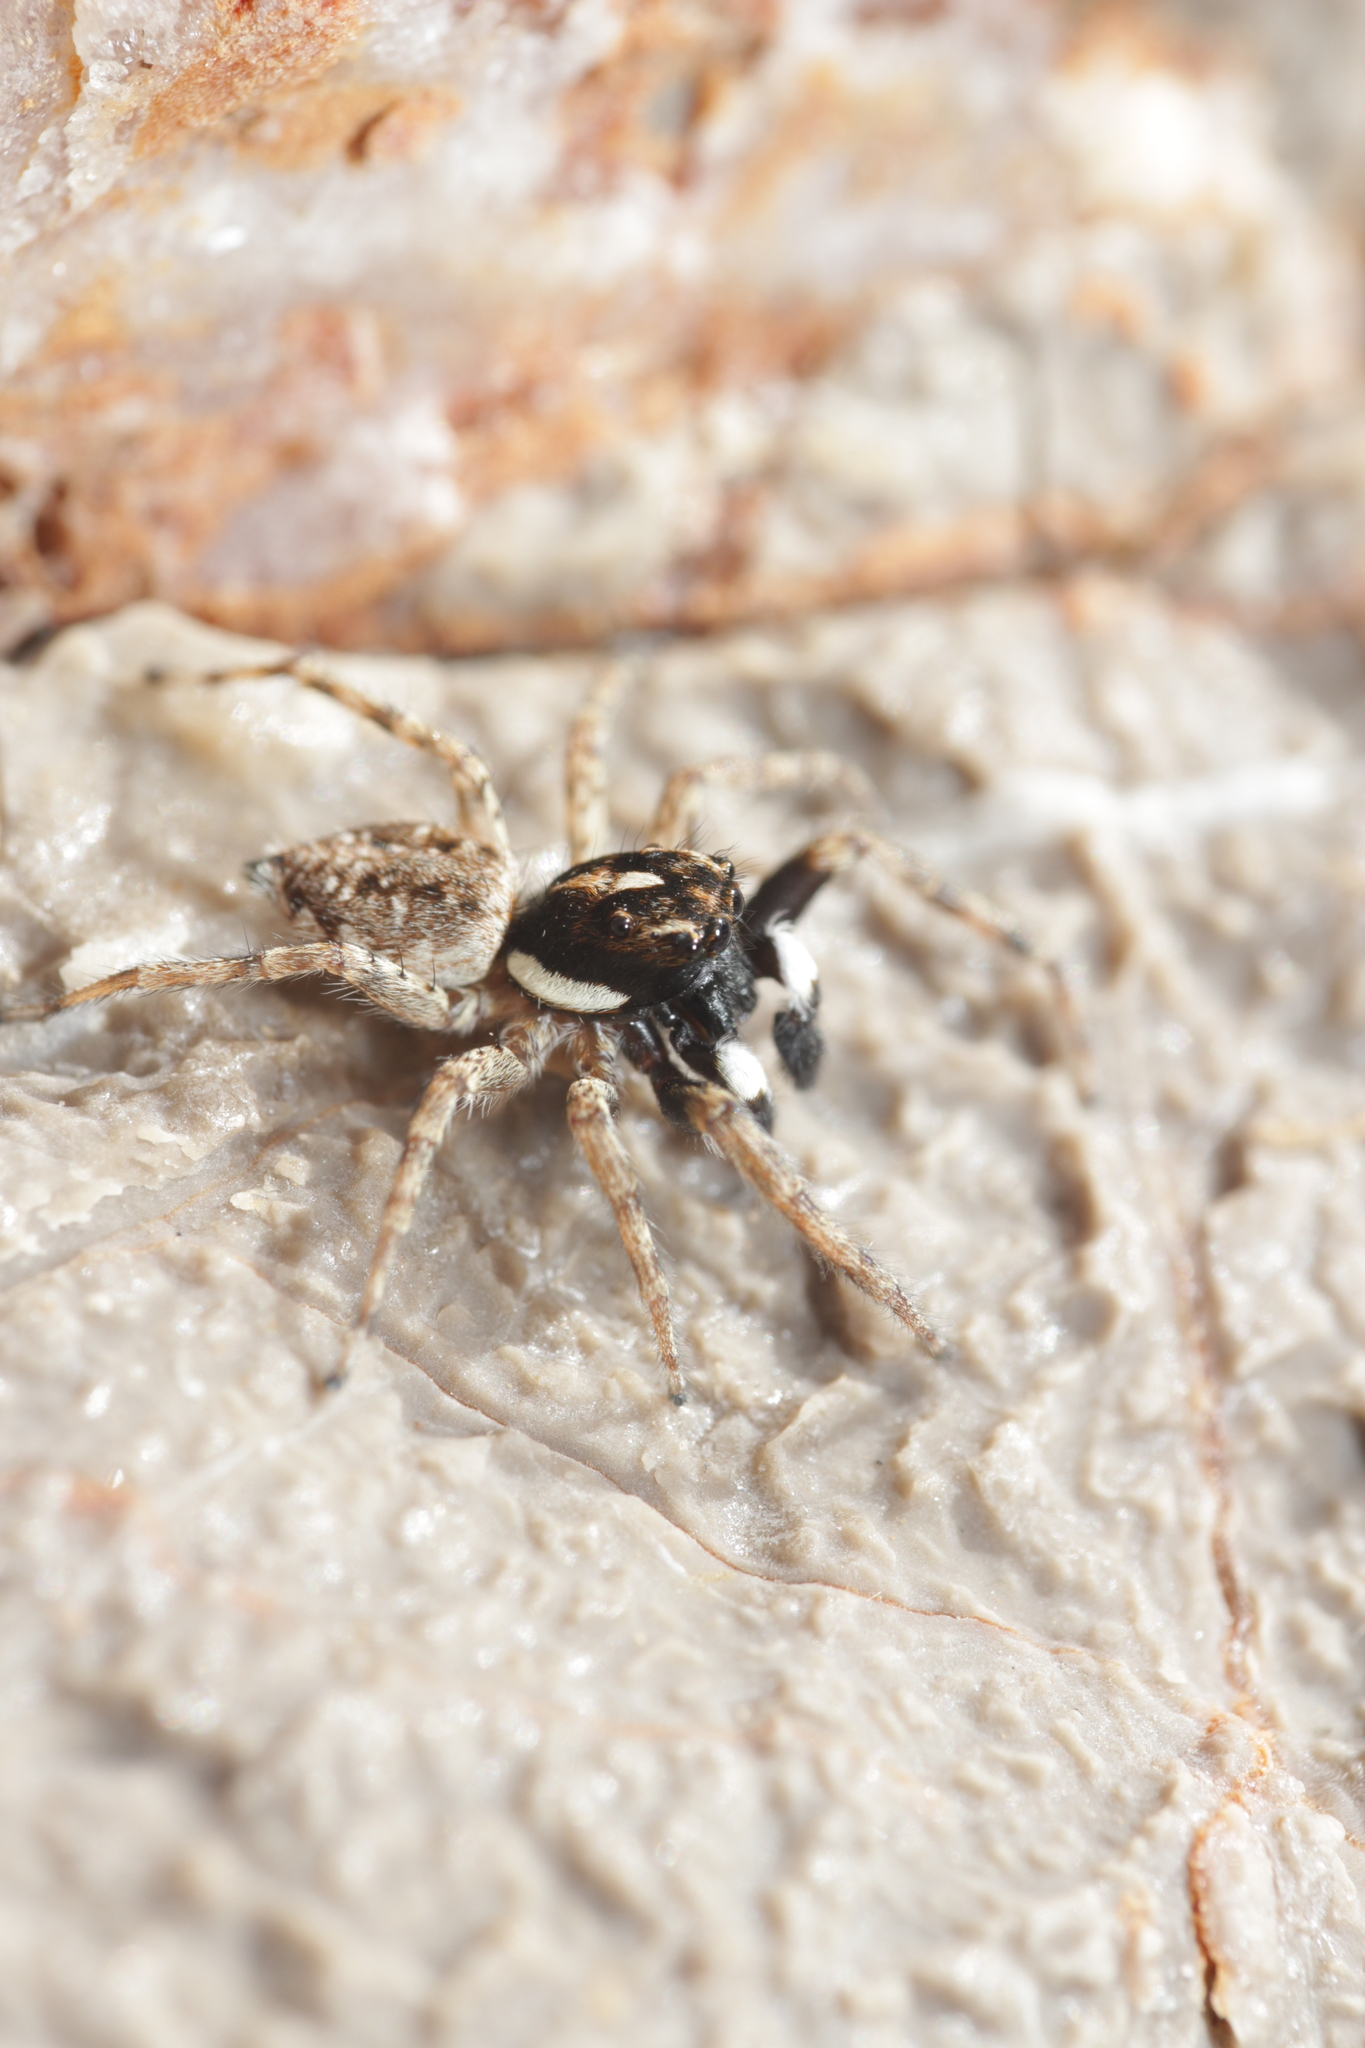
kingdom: Animalia
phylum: Arthropoda
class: Arachnida
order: Araneae
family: Salticidae
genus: Menemerus
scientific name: Menemerus semilimbatus
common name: Jumping spider
